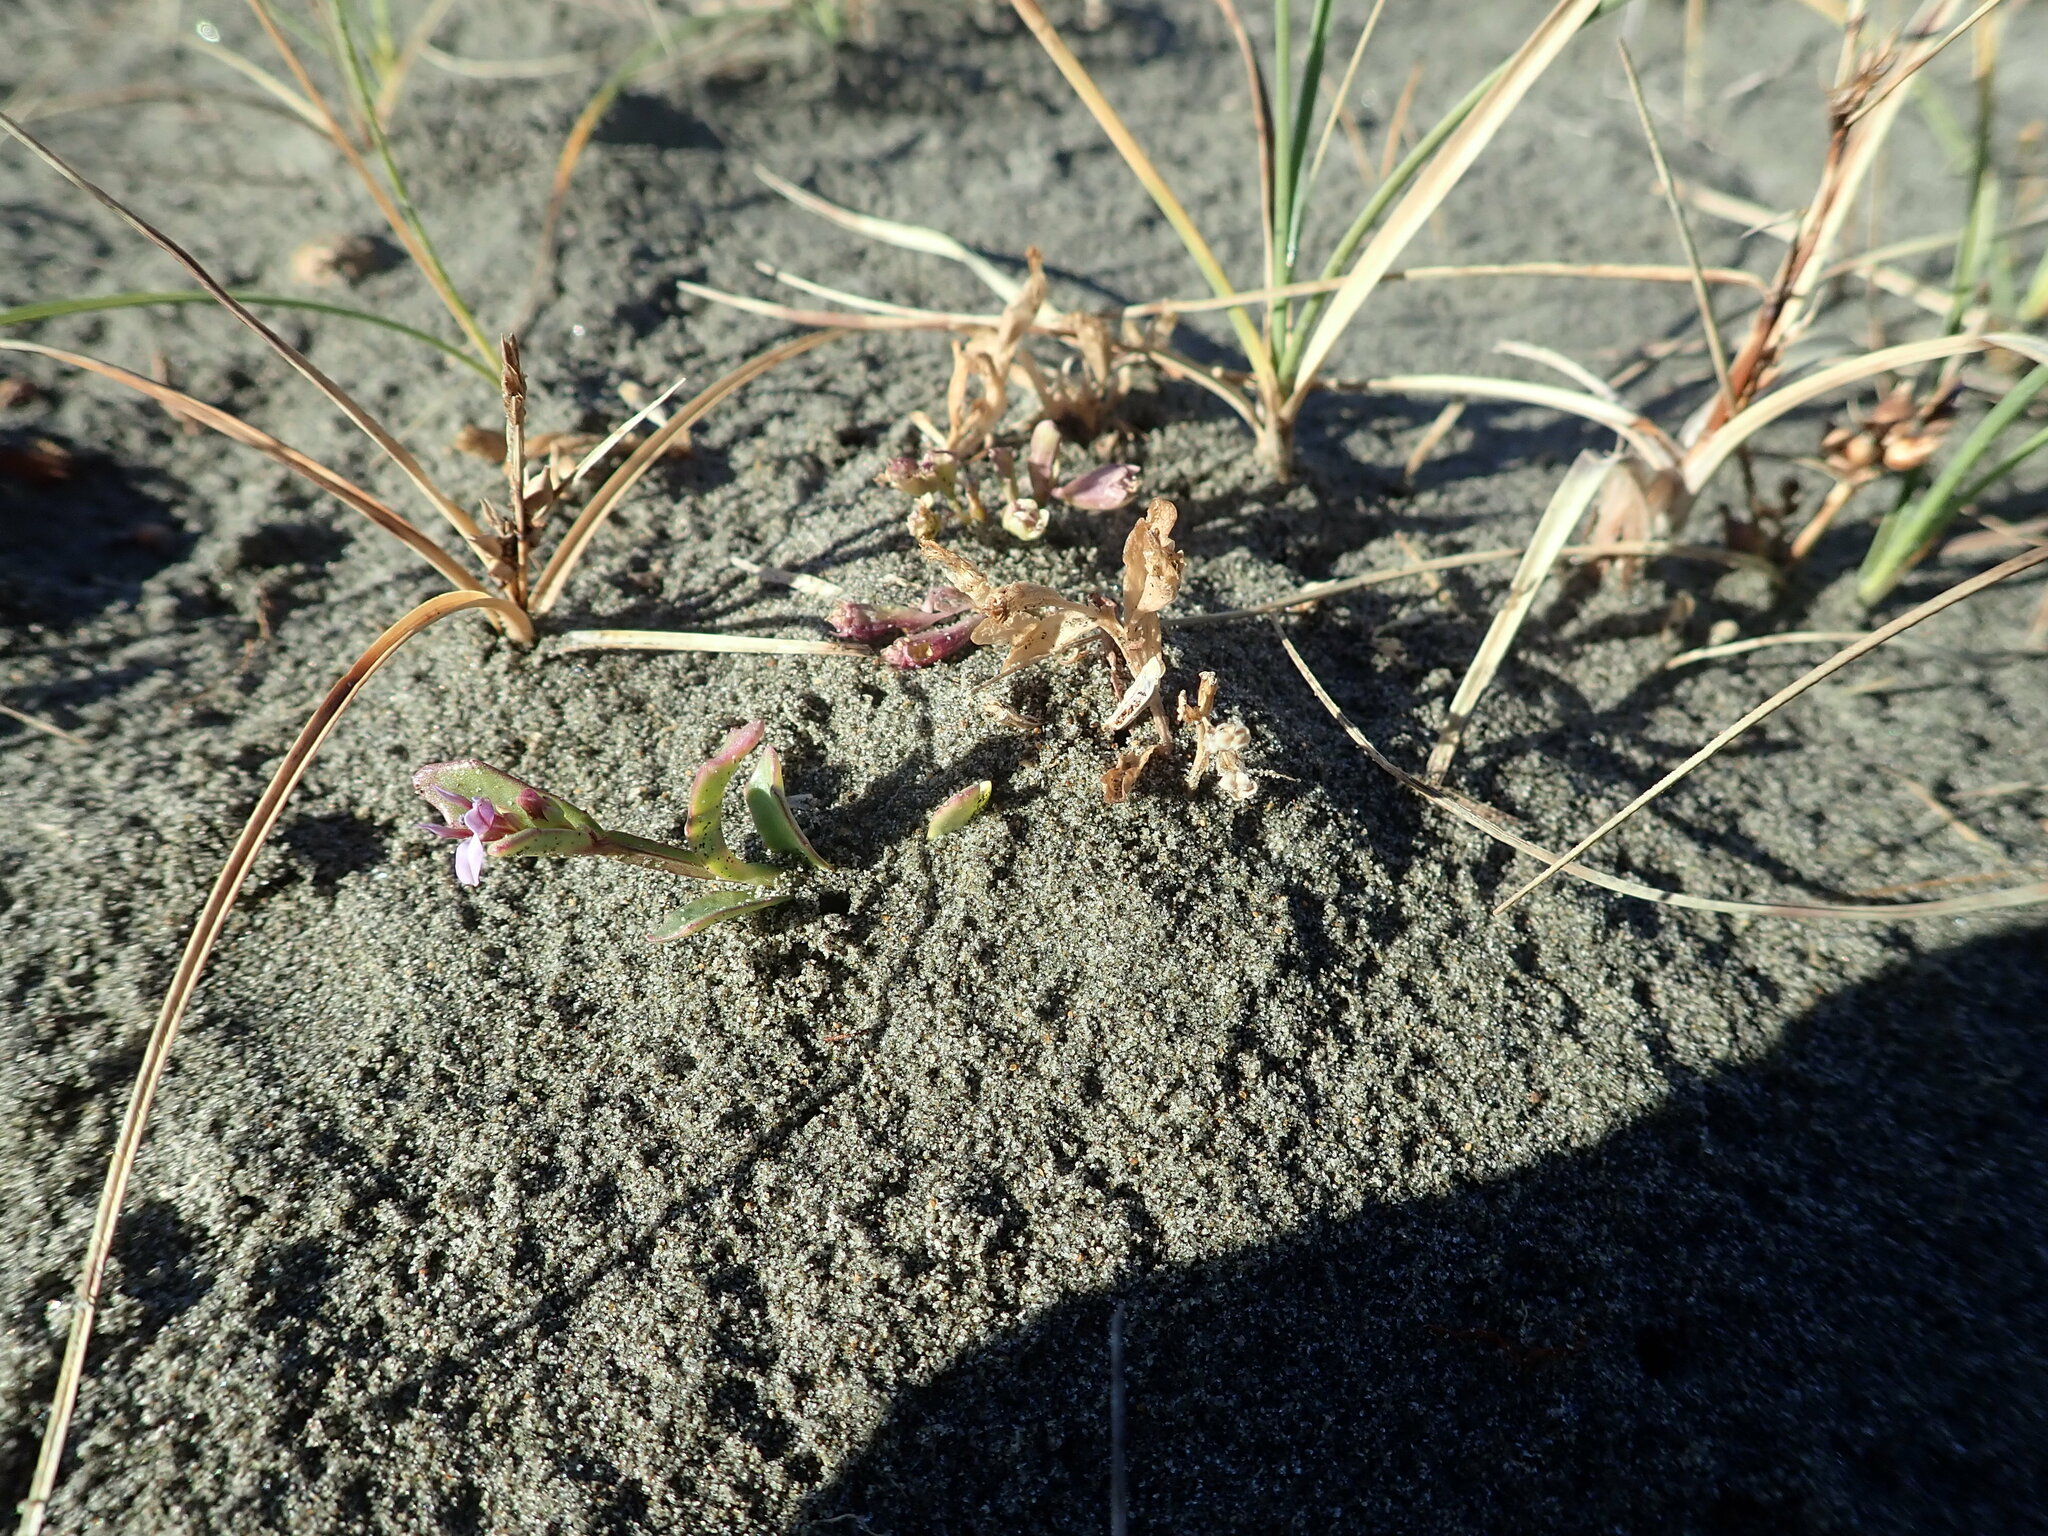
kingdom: Plantae
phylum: Tracheophyta
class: Magnoliopsida
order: Asterales
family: Campanulaceae
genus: Lobelia
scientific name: Lobelia anceps
